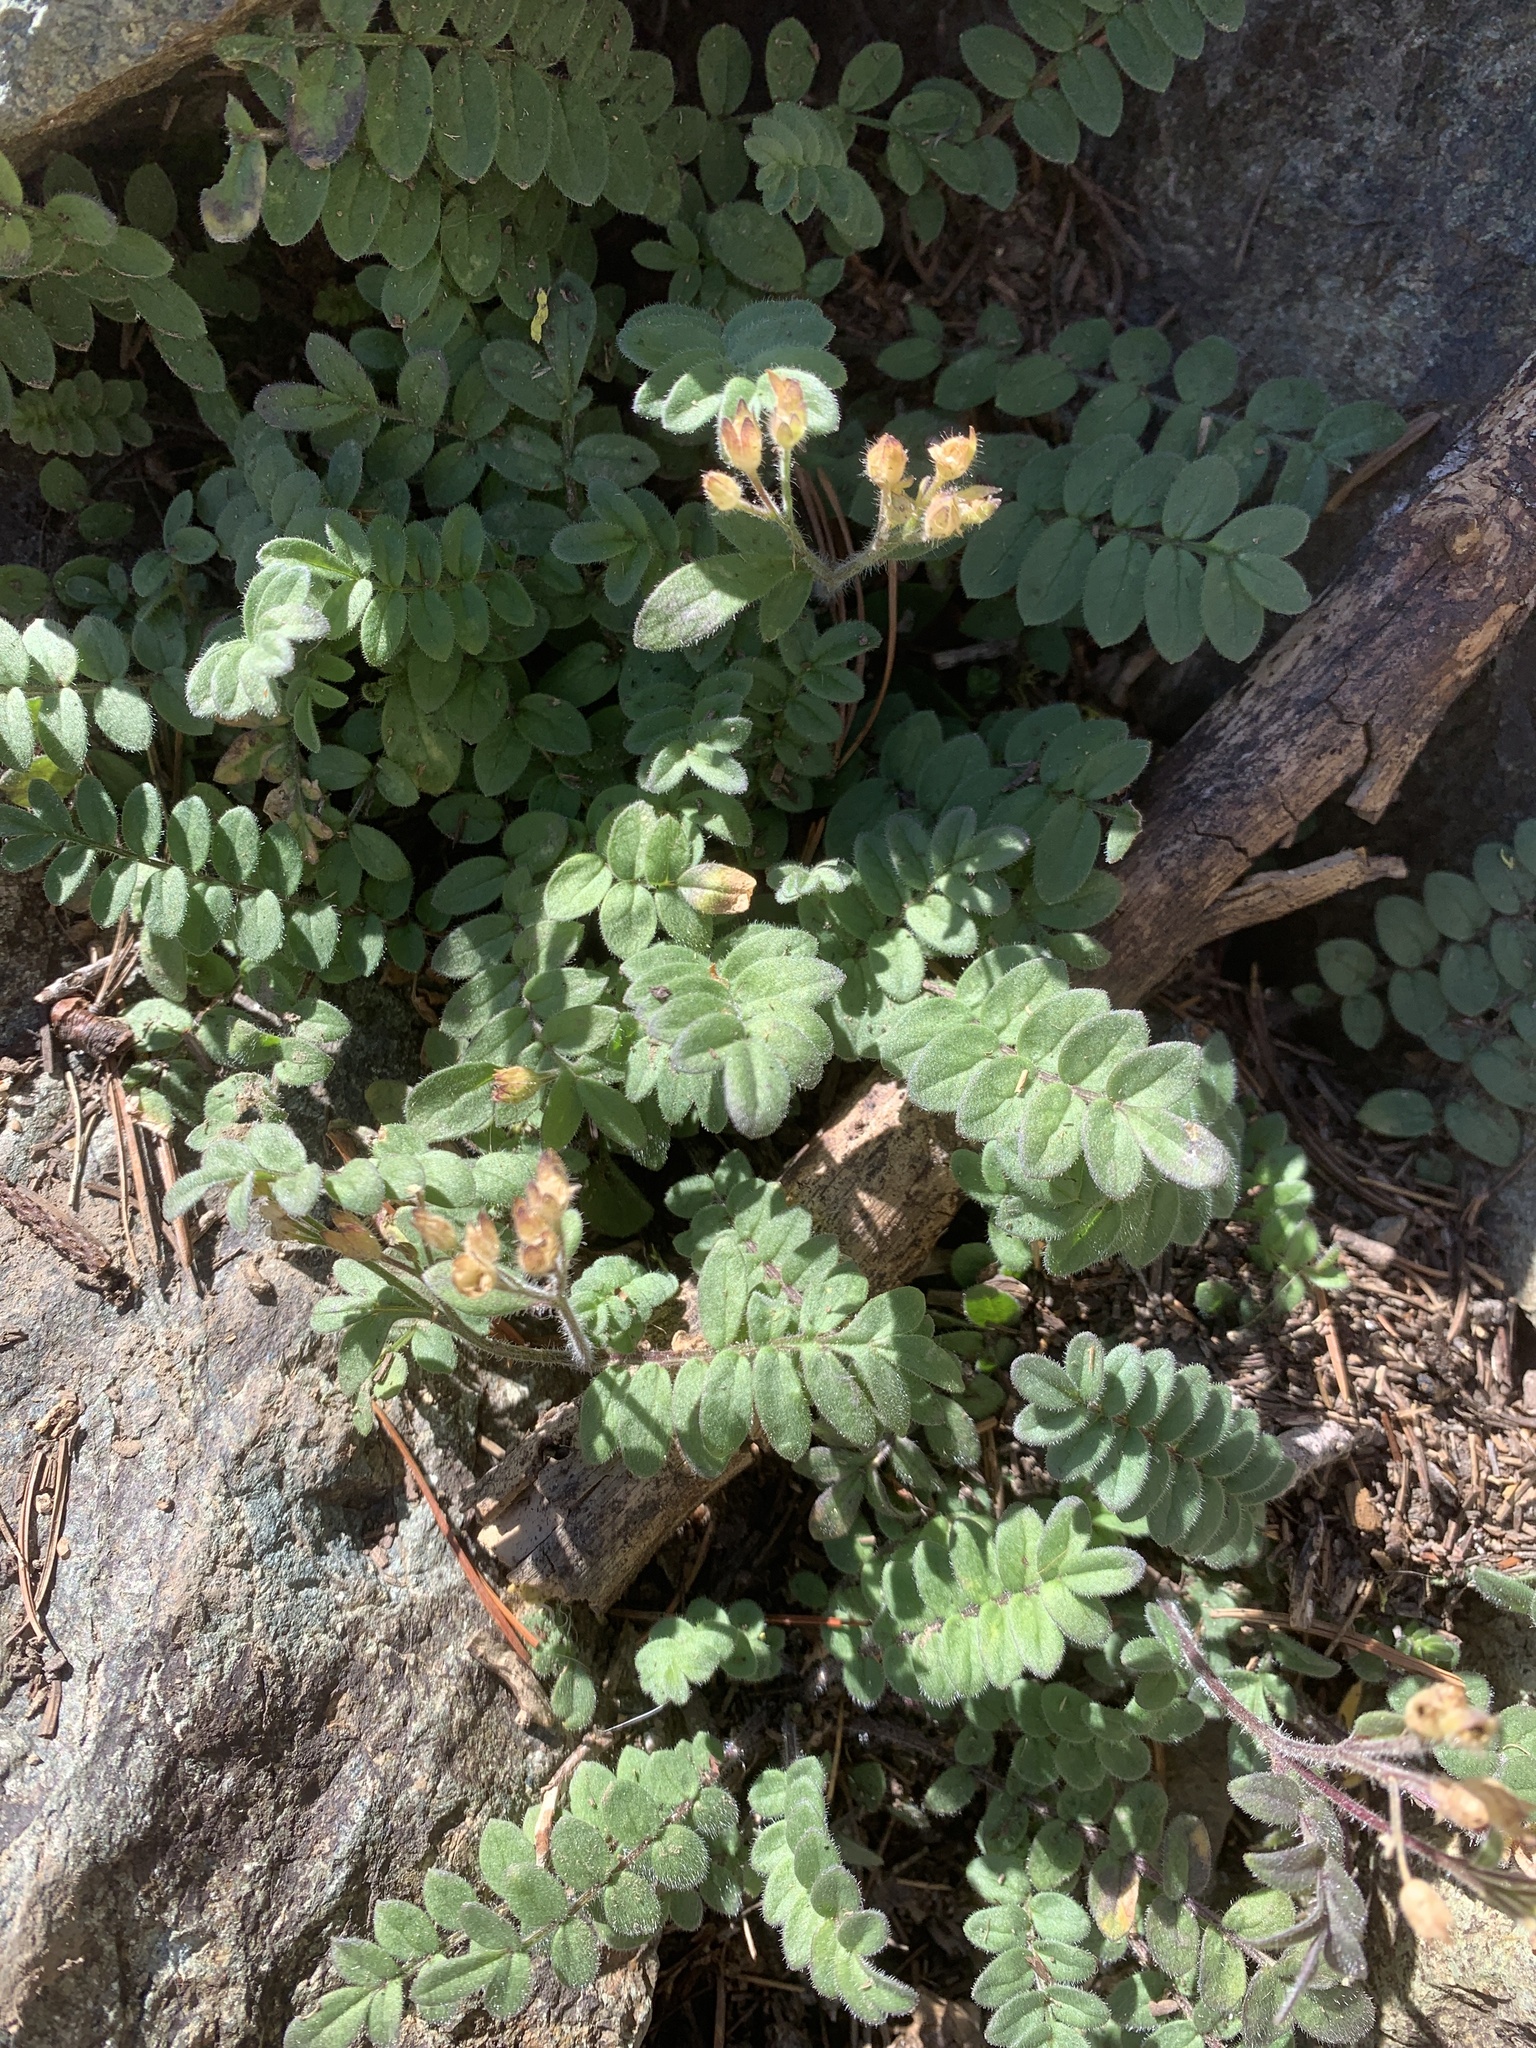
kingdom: Plantae
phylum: Tracheophyta
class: Magnoliopsida
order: Ericales
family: Polemoniaceae
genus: Polemonium
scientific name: Polemonium californicum
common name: California jacob's ladder
